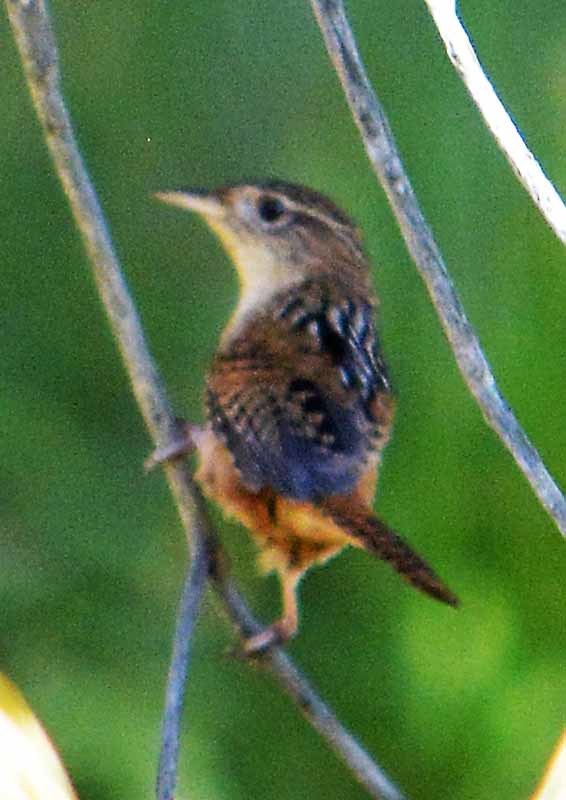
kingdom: Animalia
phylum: Chordata
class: Aves
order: Passeriformes
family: Troglodytidae
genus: Cistothorus
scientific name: Cistothorus palustris
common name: Marsh wren
